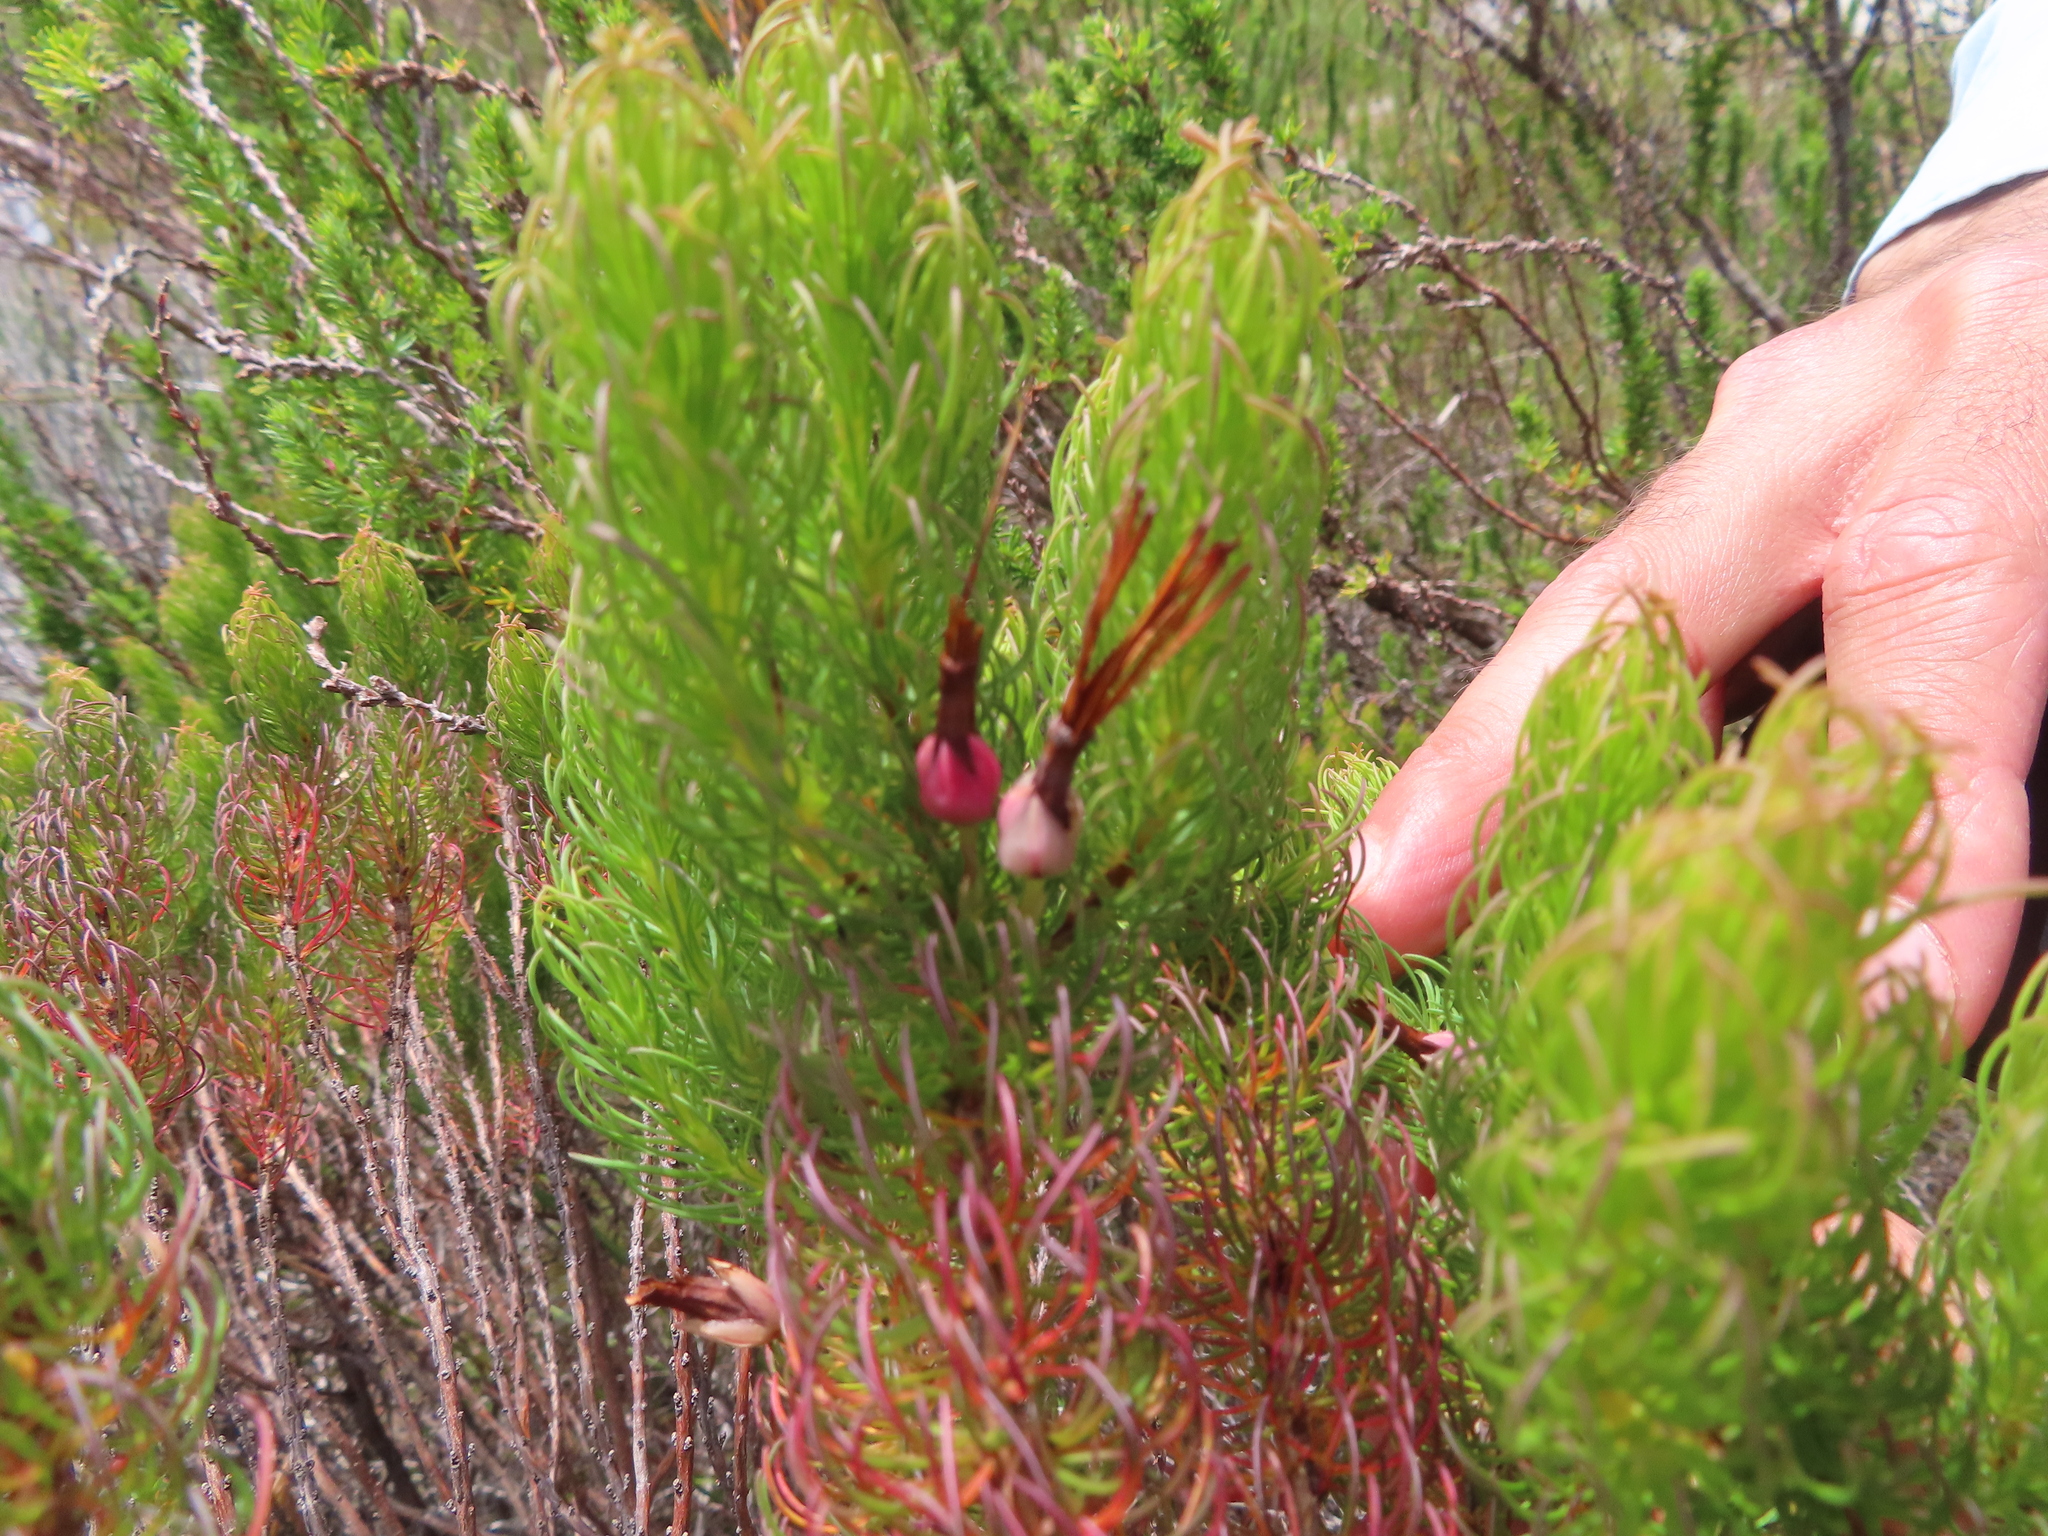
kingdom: Plantae
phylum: Tracheophyta
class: Magnoliopsida
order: Ericales
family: Ericaceae
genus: Erica
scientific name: Erica plukenetii
